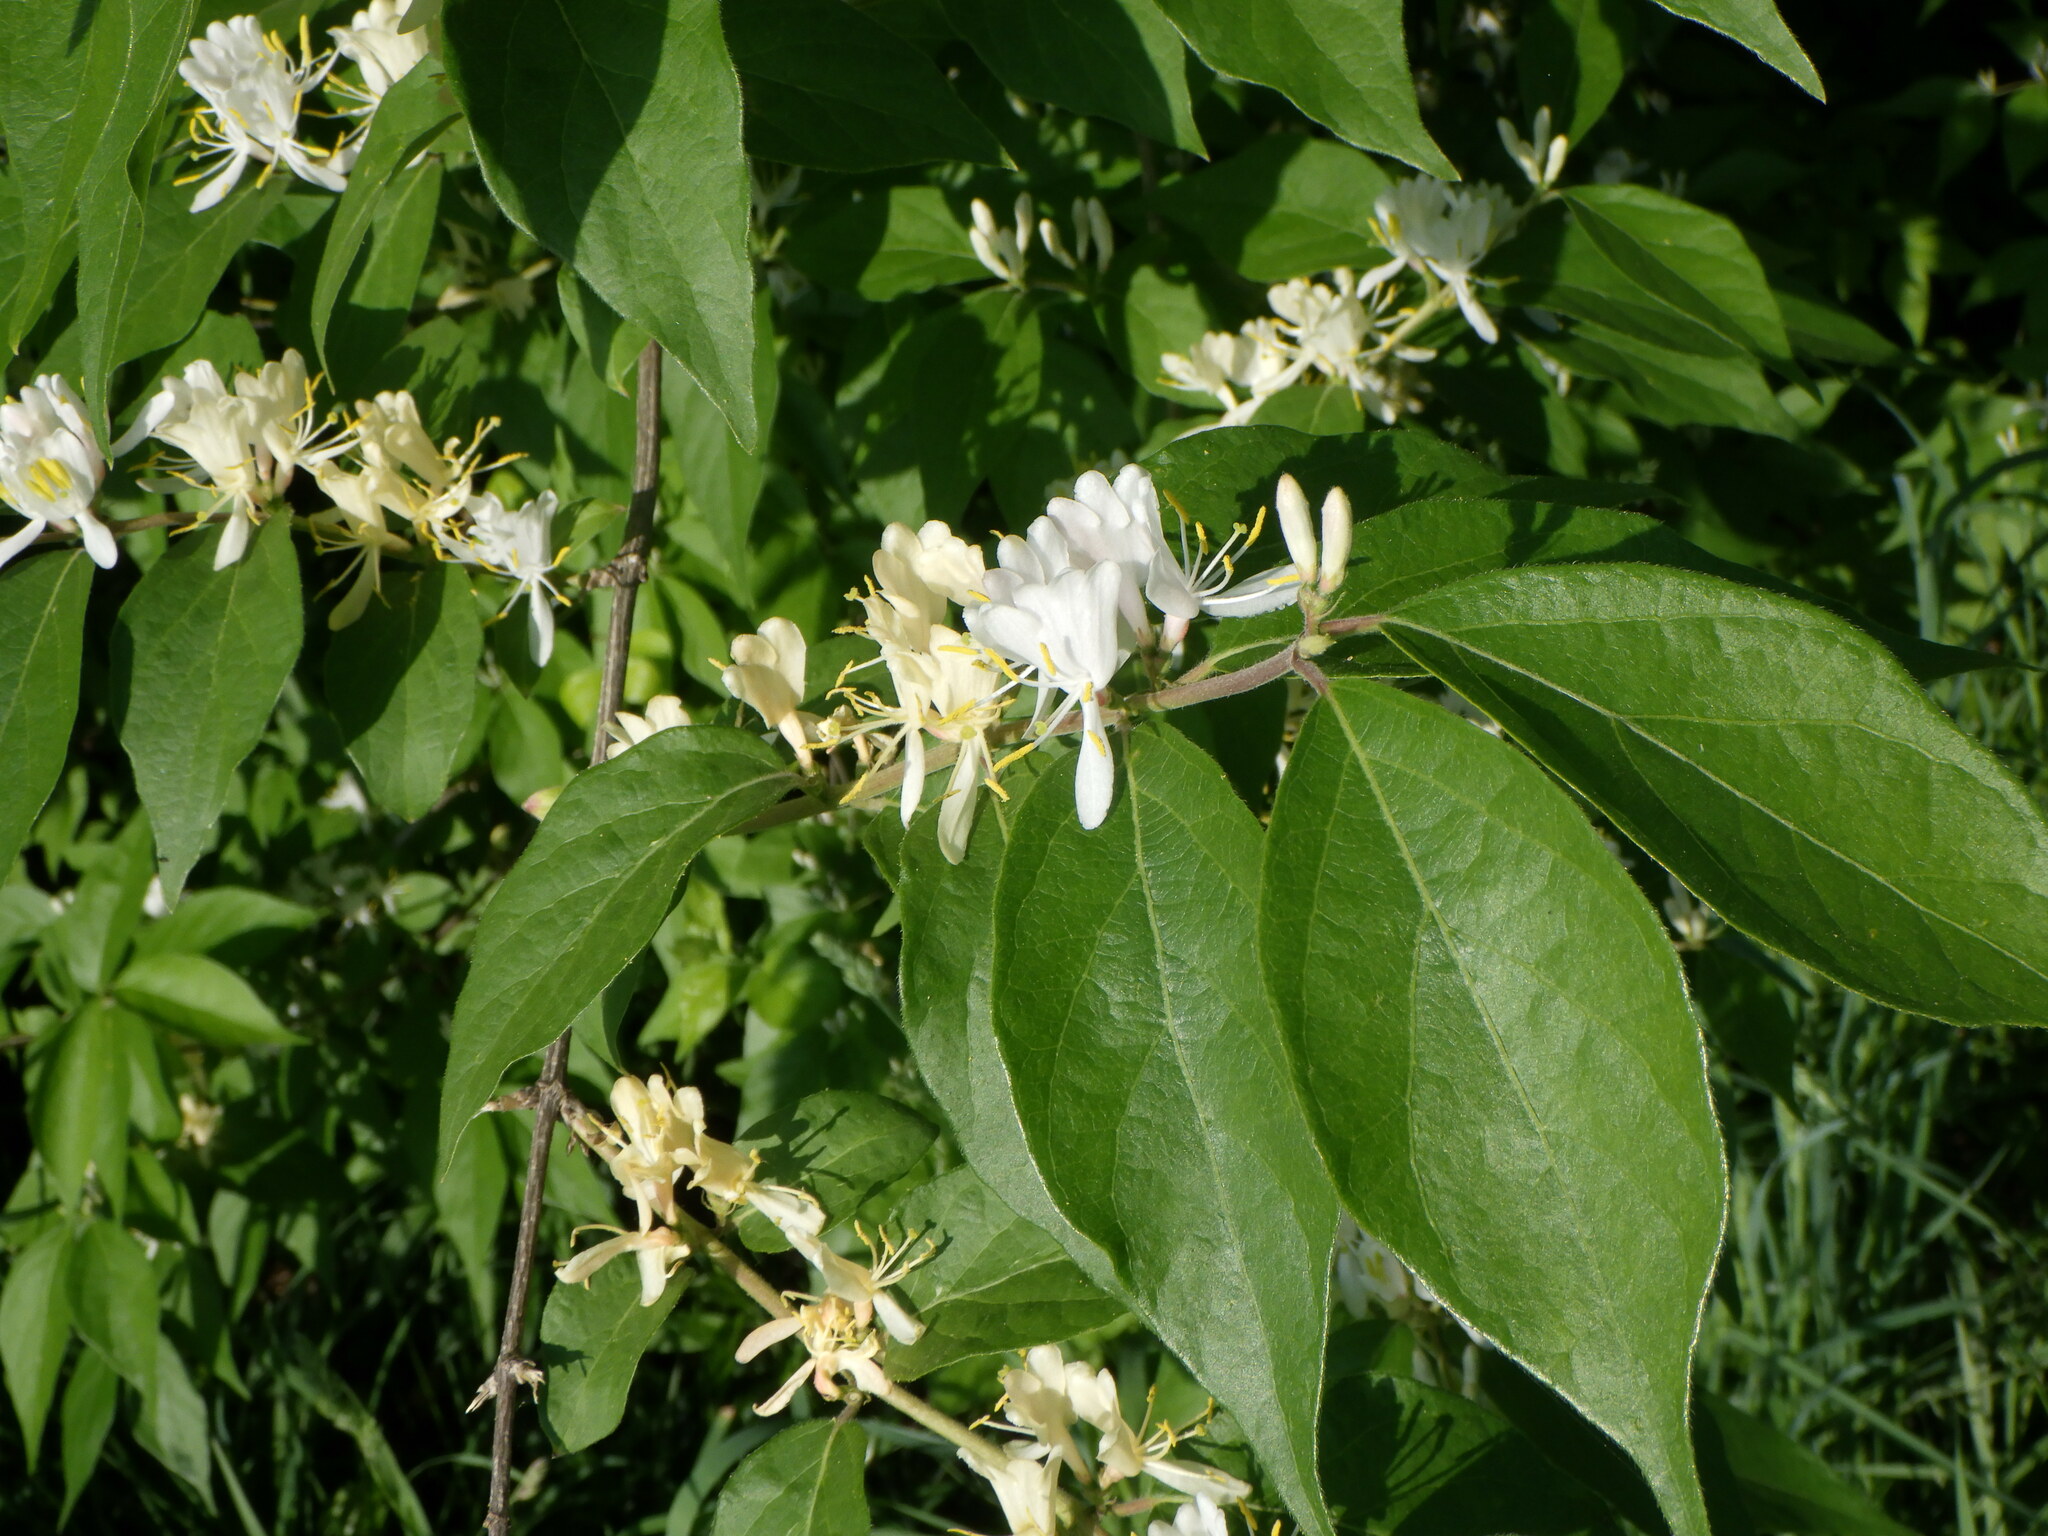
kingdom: Plantae
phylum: Tracheophyta
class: Magnoliopsida
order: Dipsacales
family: Caprifoliaceae
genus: Lonicera
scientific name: Lonicera maackii
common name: Amur honeysuckle
